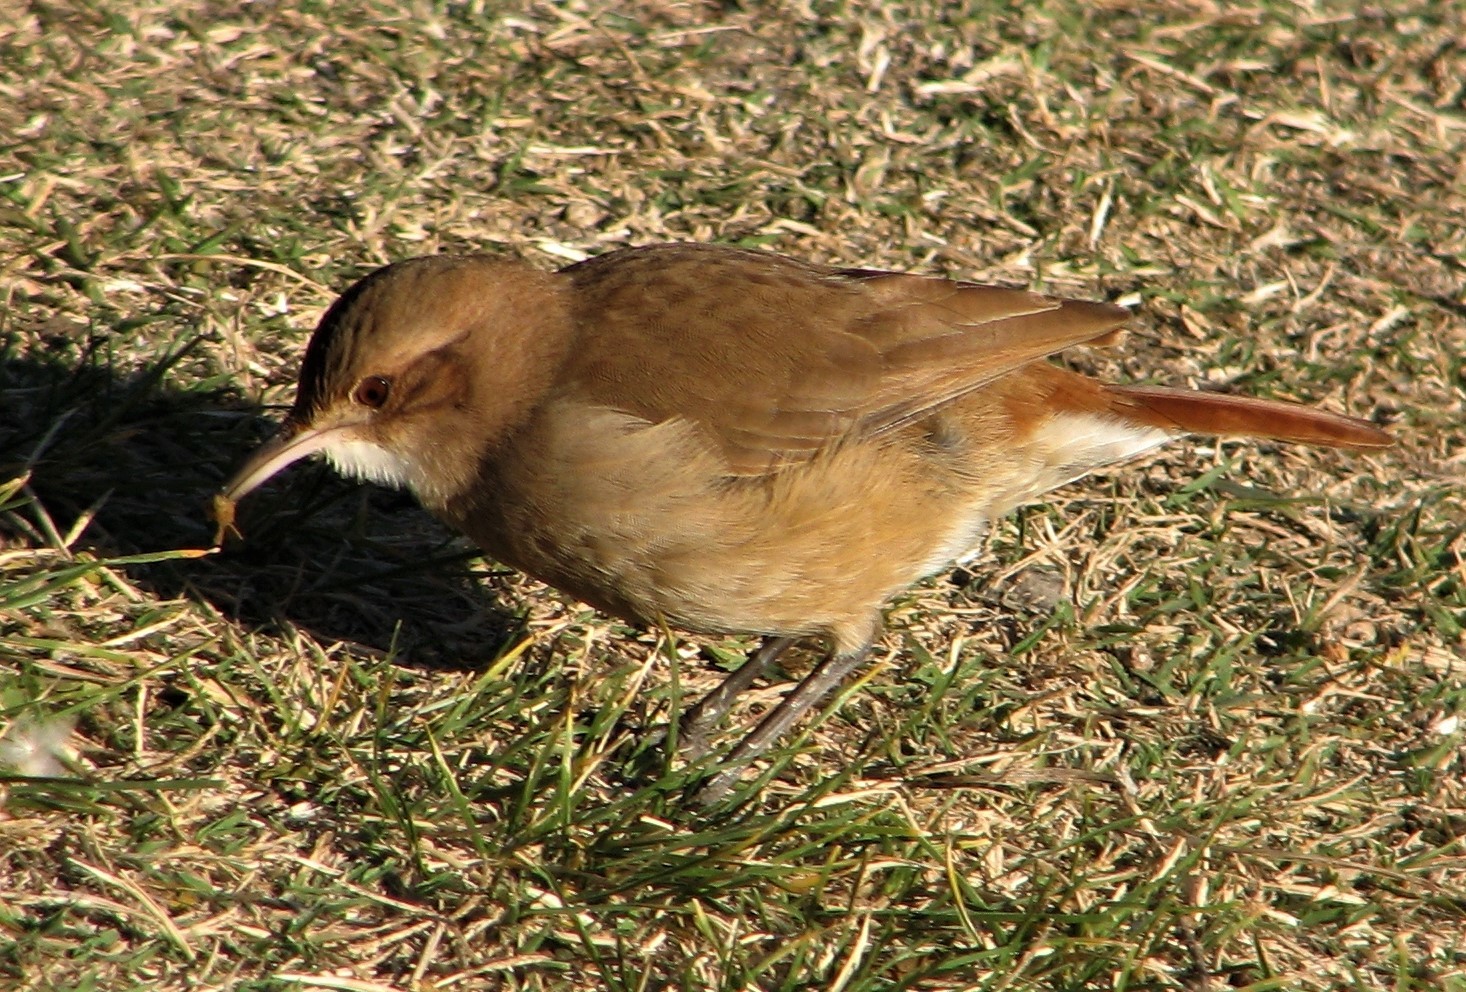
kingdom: Animalia
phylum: Chordata
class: Aves
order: Passeriformes
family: Furnariidae
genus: Furnarius
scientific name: Furnarius rufus
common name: Rufous hornero
